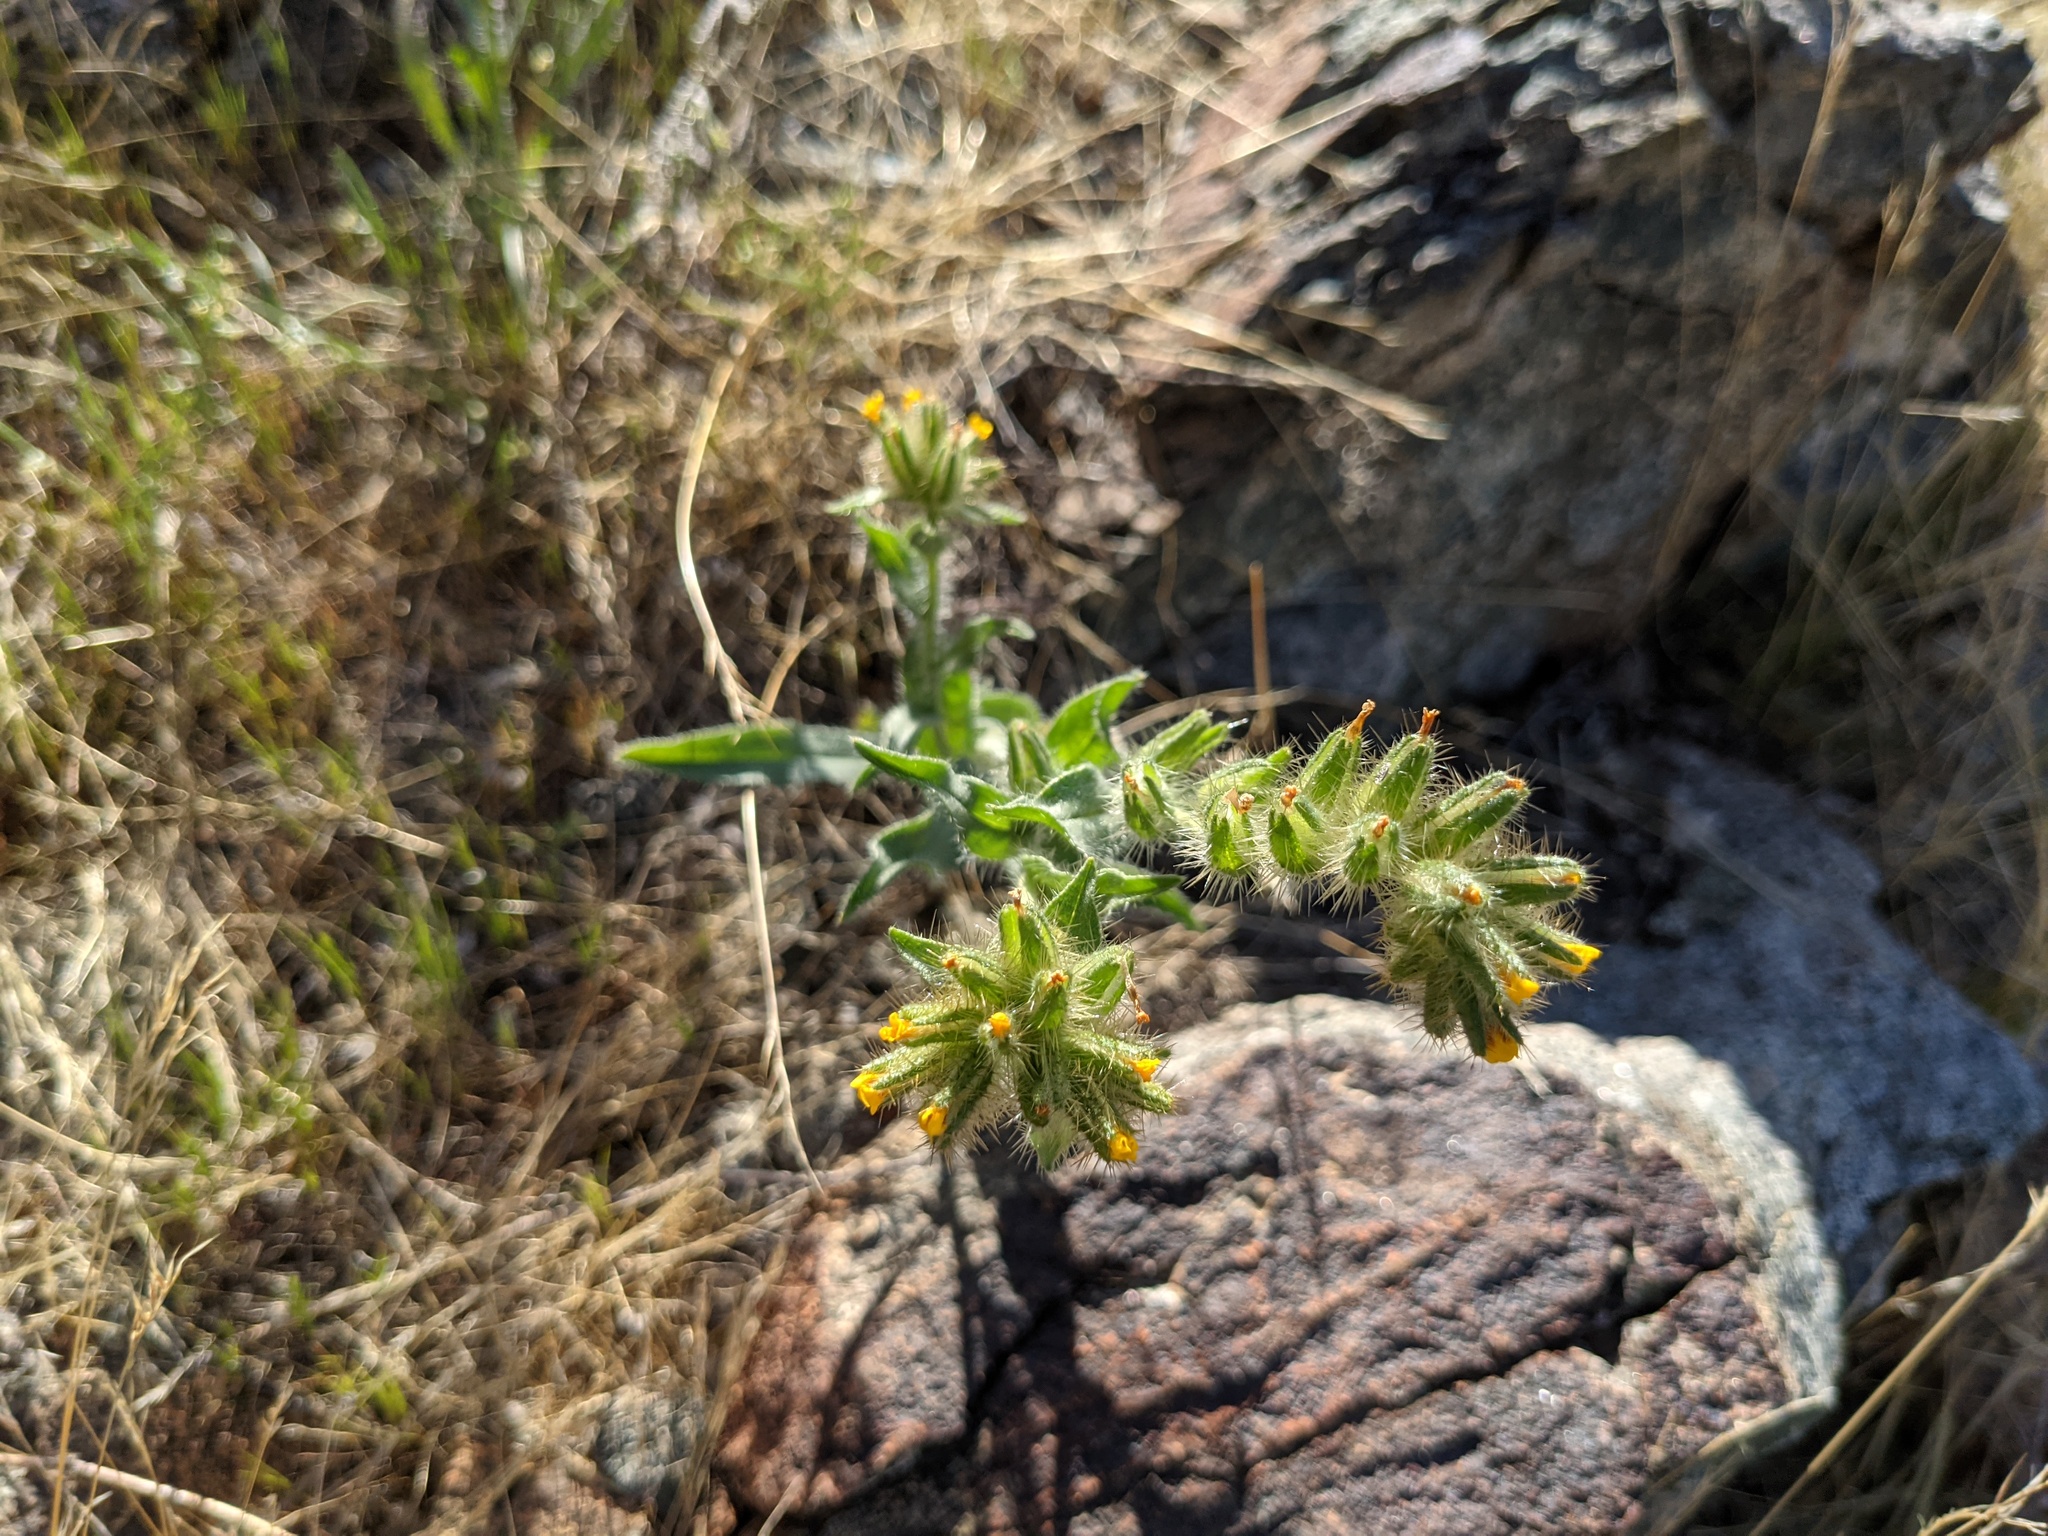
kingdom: Plantae
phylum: Tracheophyta
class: Magnoliopsida
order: Boraginales
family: Boraginaceae
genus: Amsinckia
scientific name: Amsinckia tessellata
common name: Tessellate fiddleneck
